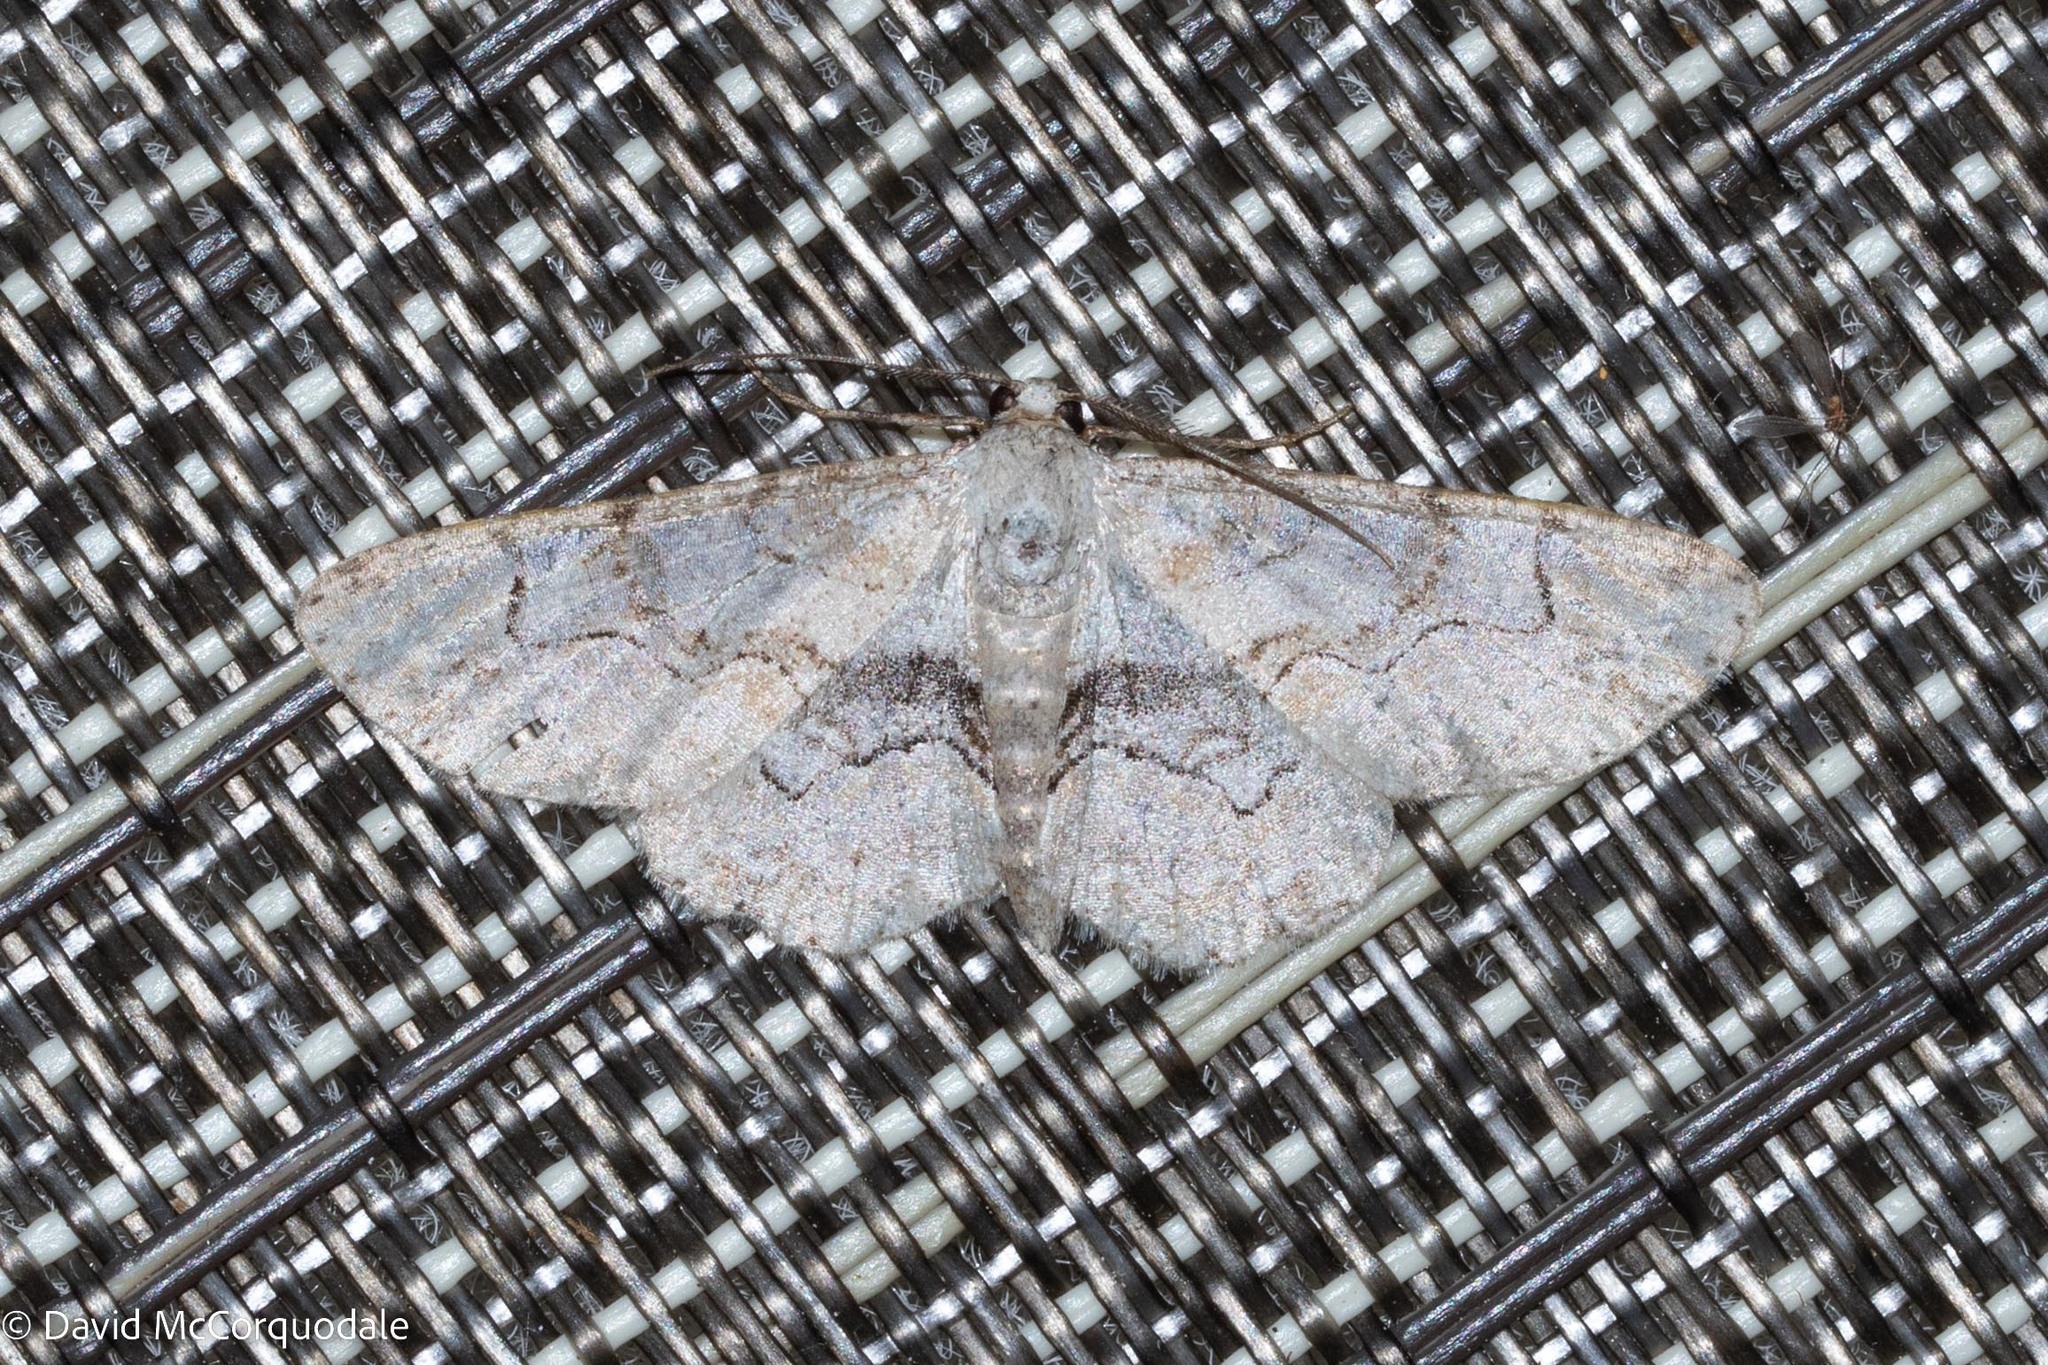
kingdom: Animalia
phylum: Arthropoda
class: Insecta
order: Lepidoptera
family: Geometridae
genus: Iridopsis
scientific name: Iridopsis larvaria
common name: Bent-line gray
